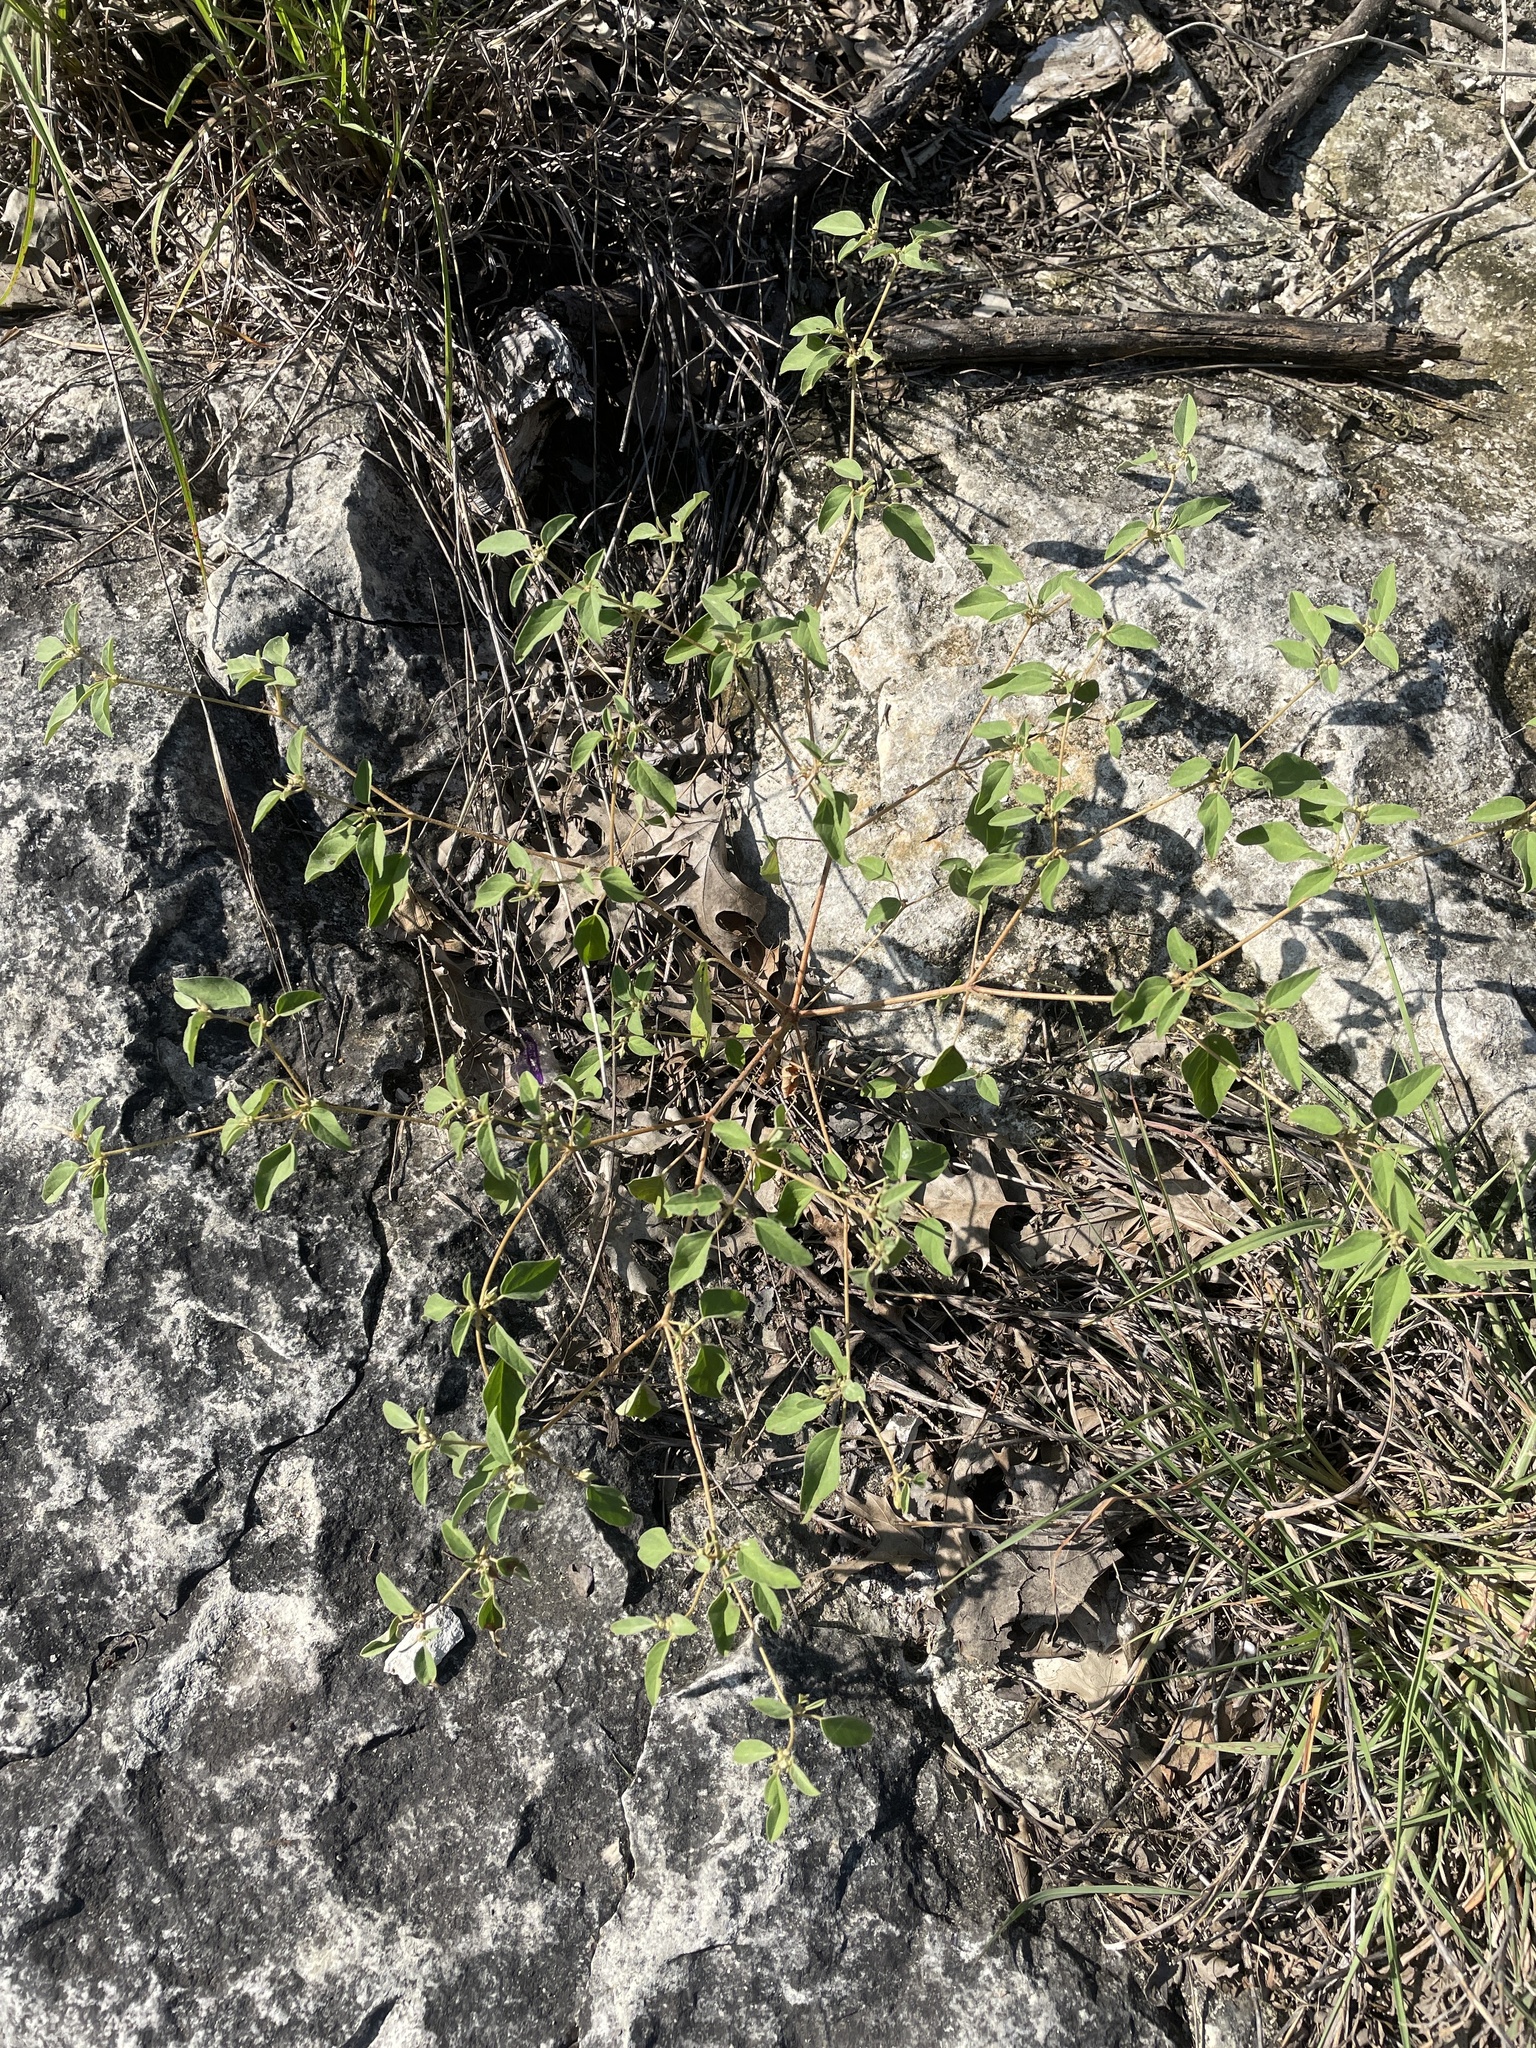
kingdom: Plantae
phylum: Tracheophyta
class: Magnoliopsida
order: Malpighiales
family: Euphorbiaceae
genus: Croton
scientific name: Croton monanthogynus
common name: One-seed croton
